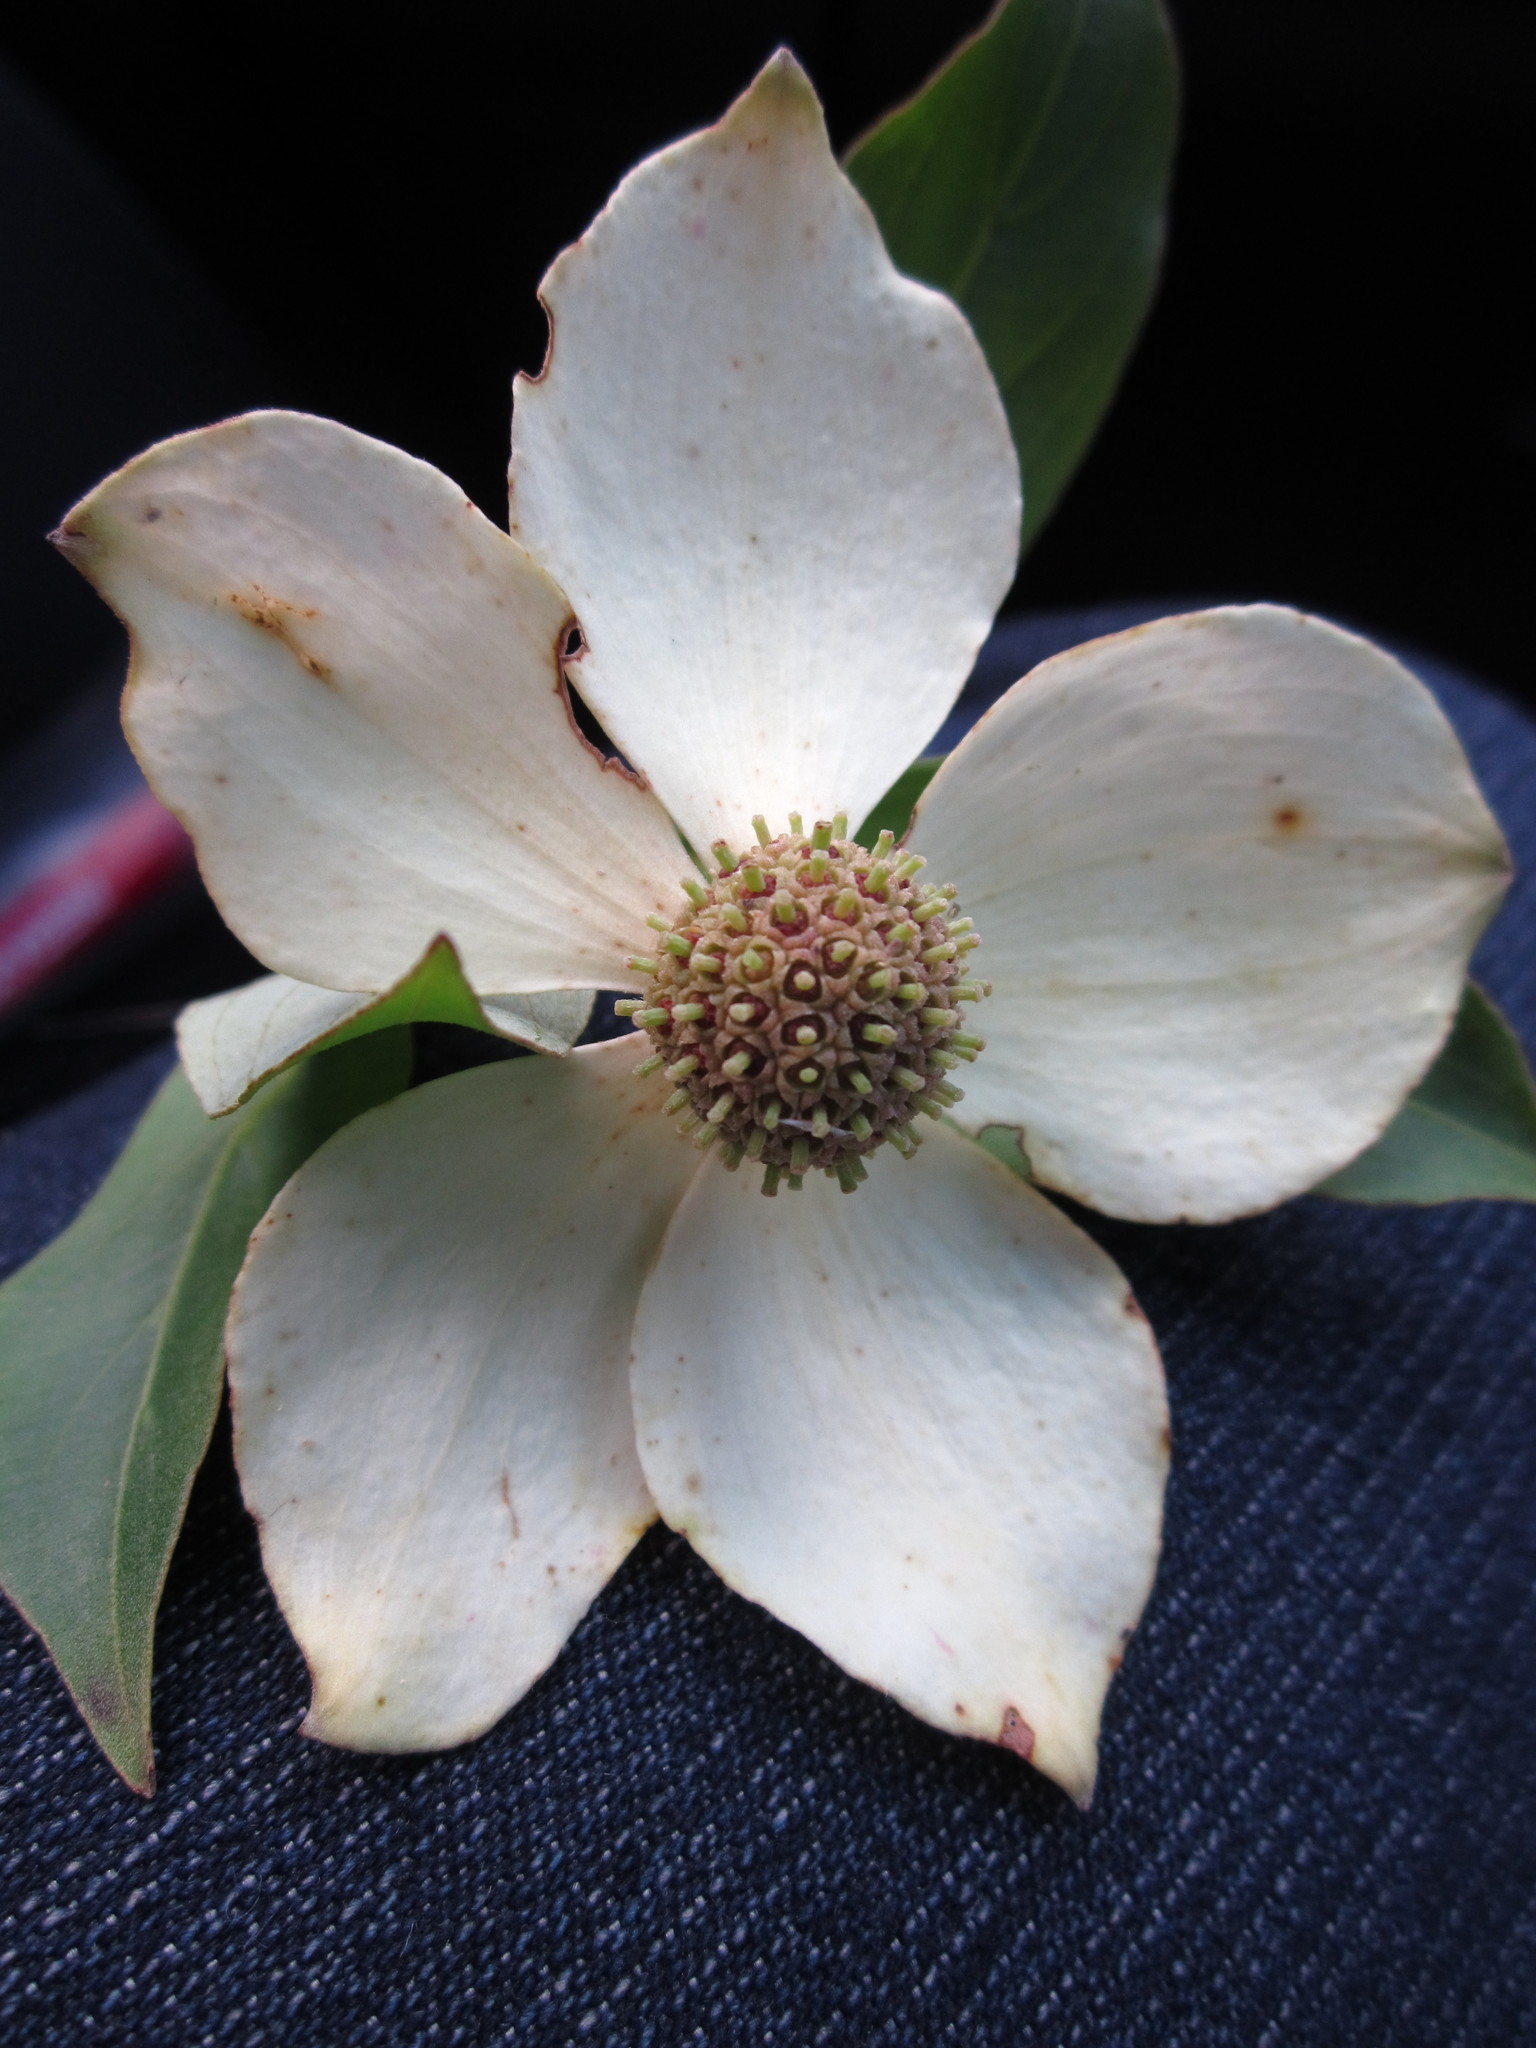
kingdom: Plantae
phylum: Tracheophyta
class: Magnoliopsida
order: Cornales
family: Cornaceae
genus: Cornus
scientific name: Cornus capitata
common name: Bentham's cornel
